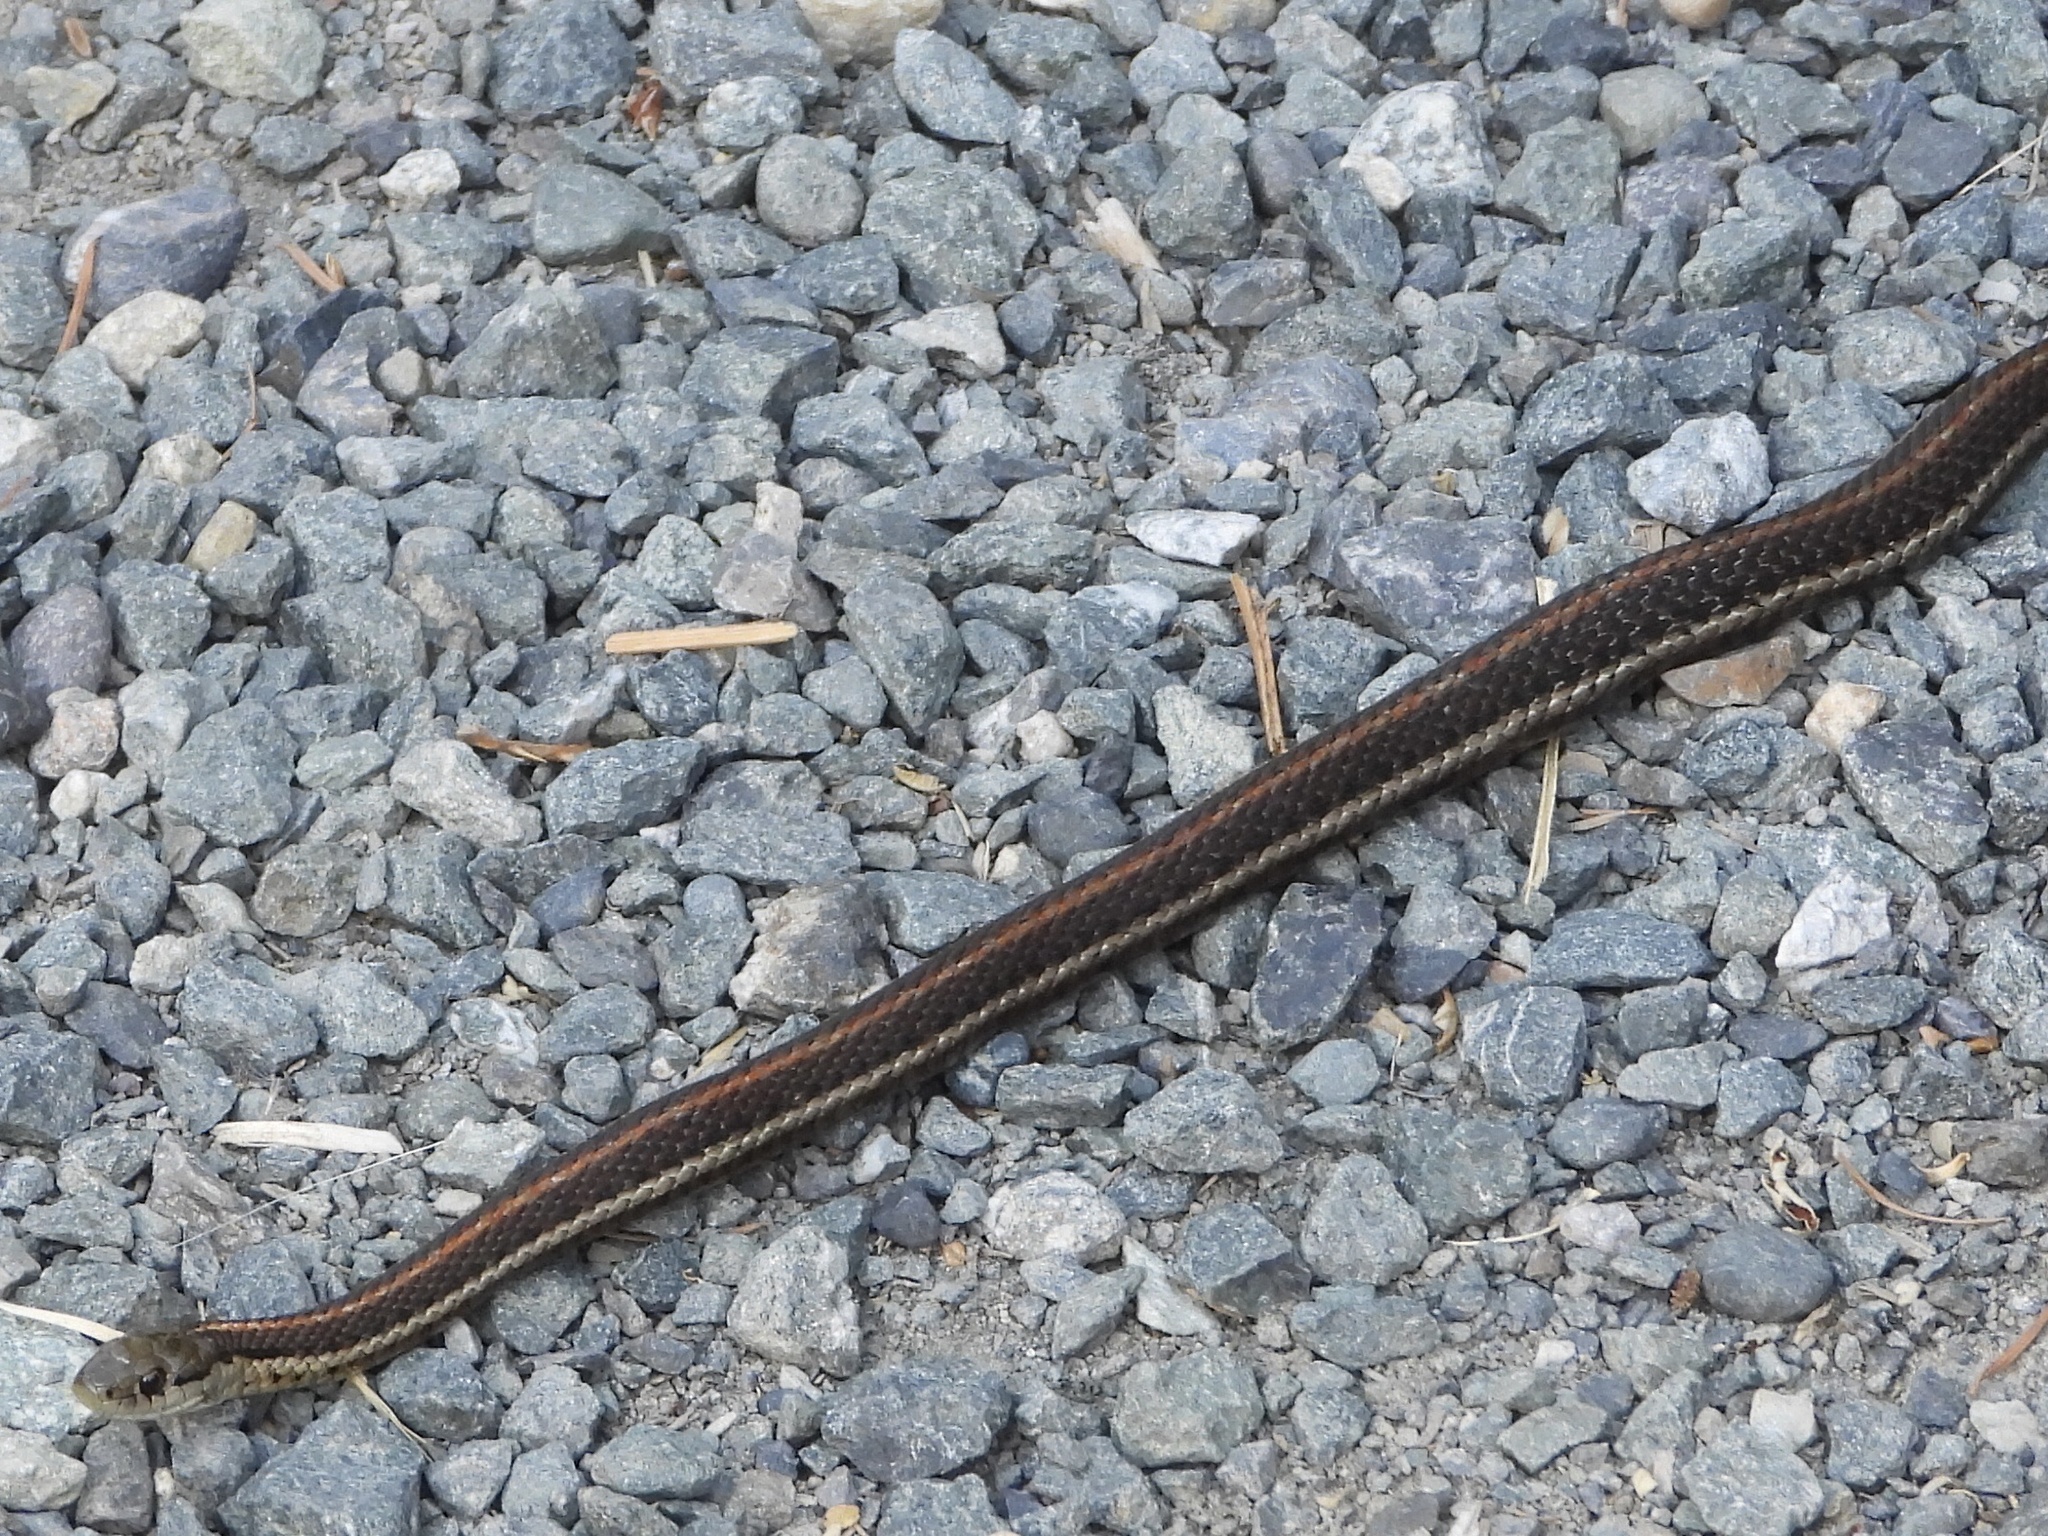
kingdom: Animalia
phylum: Chordata
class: Squamata
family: Colubridae
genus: Thamnophis
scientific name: Thamnophis ordinoides
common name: Northwestern garter snake
